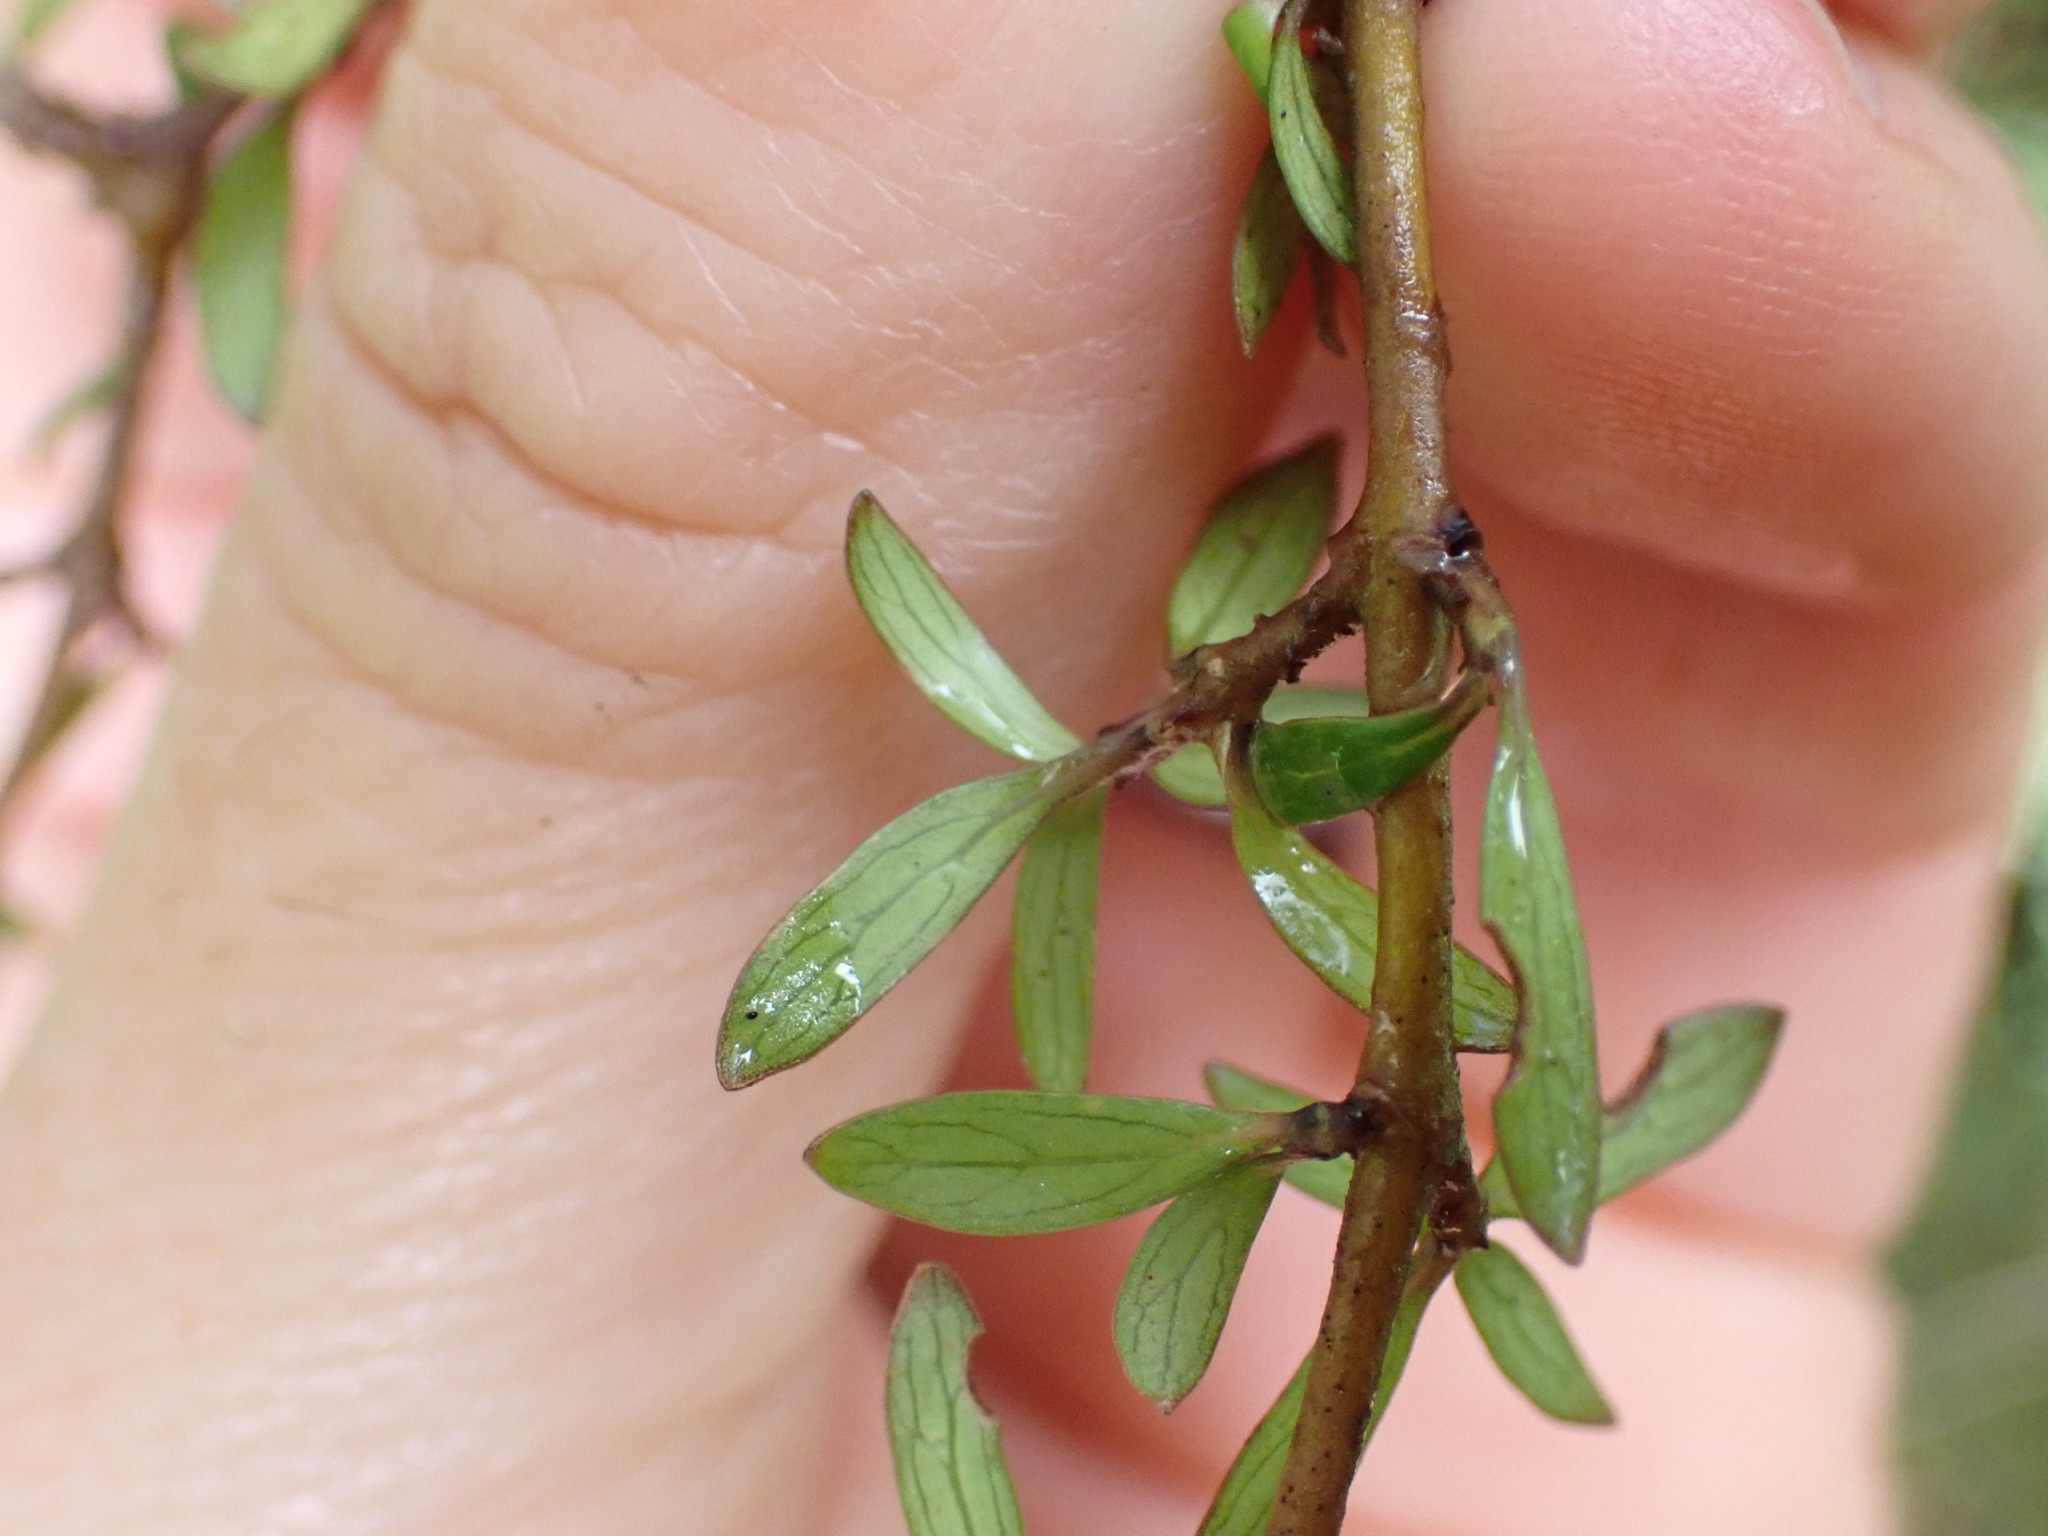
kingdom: Plantae
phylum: Tracheophyta
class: Magnoliopsida
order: Gentianales
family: Rubiaceae
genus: Coprosma
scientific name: Coprosma propinqua
